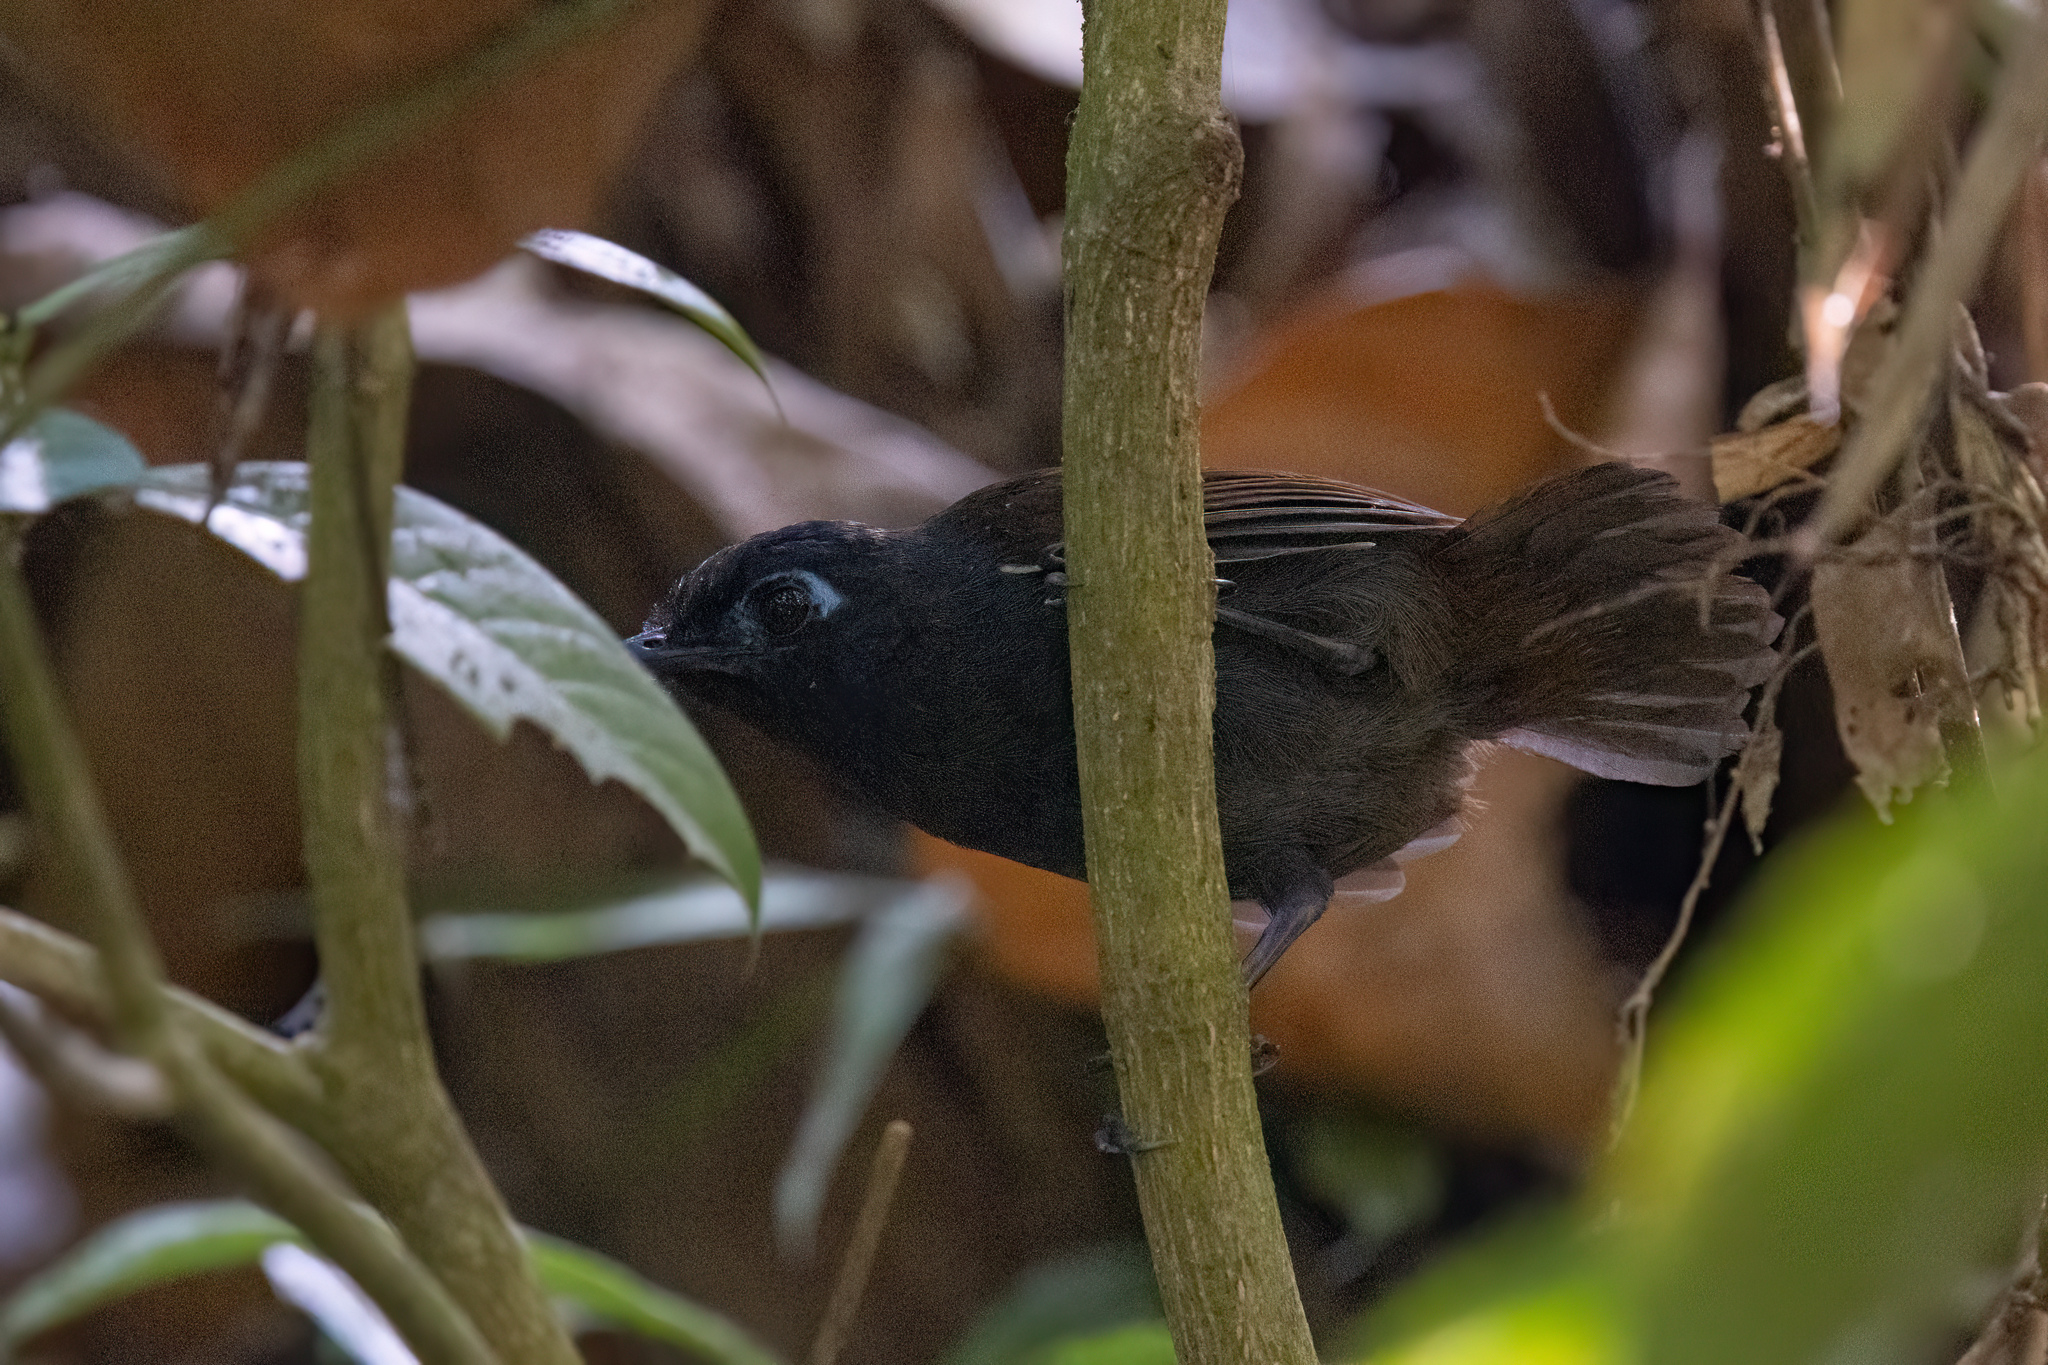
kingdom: Animalia
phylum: Chordata
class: Aves
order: Passeriformes
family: Thamnophilidae
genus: Myrmeciza
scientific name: Myrmeciza exsul
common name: Chestnut-backed antbird
